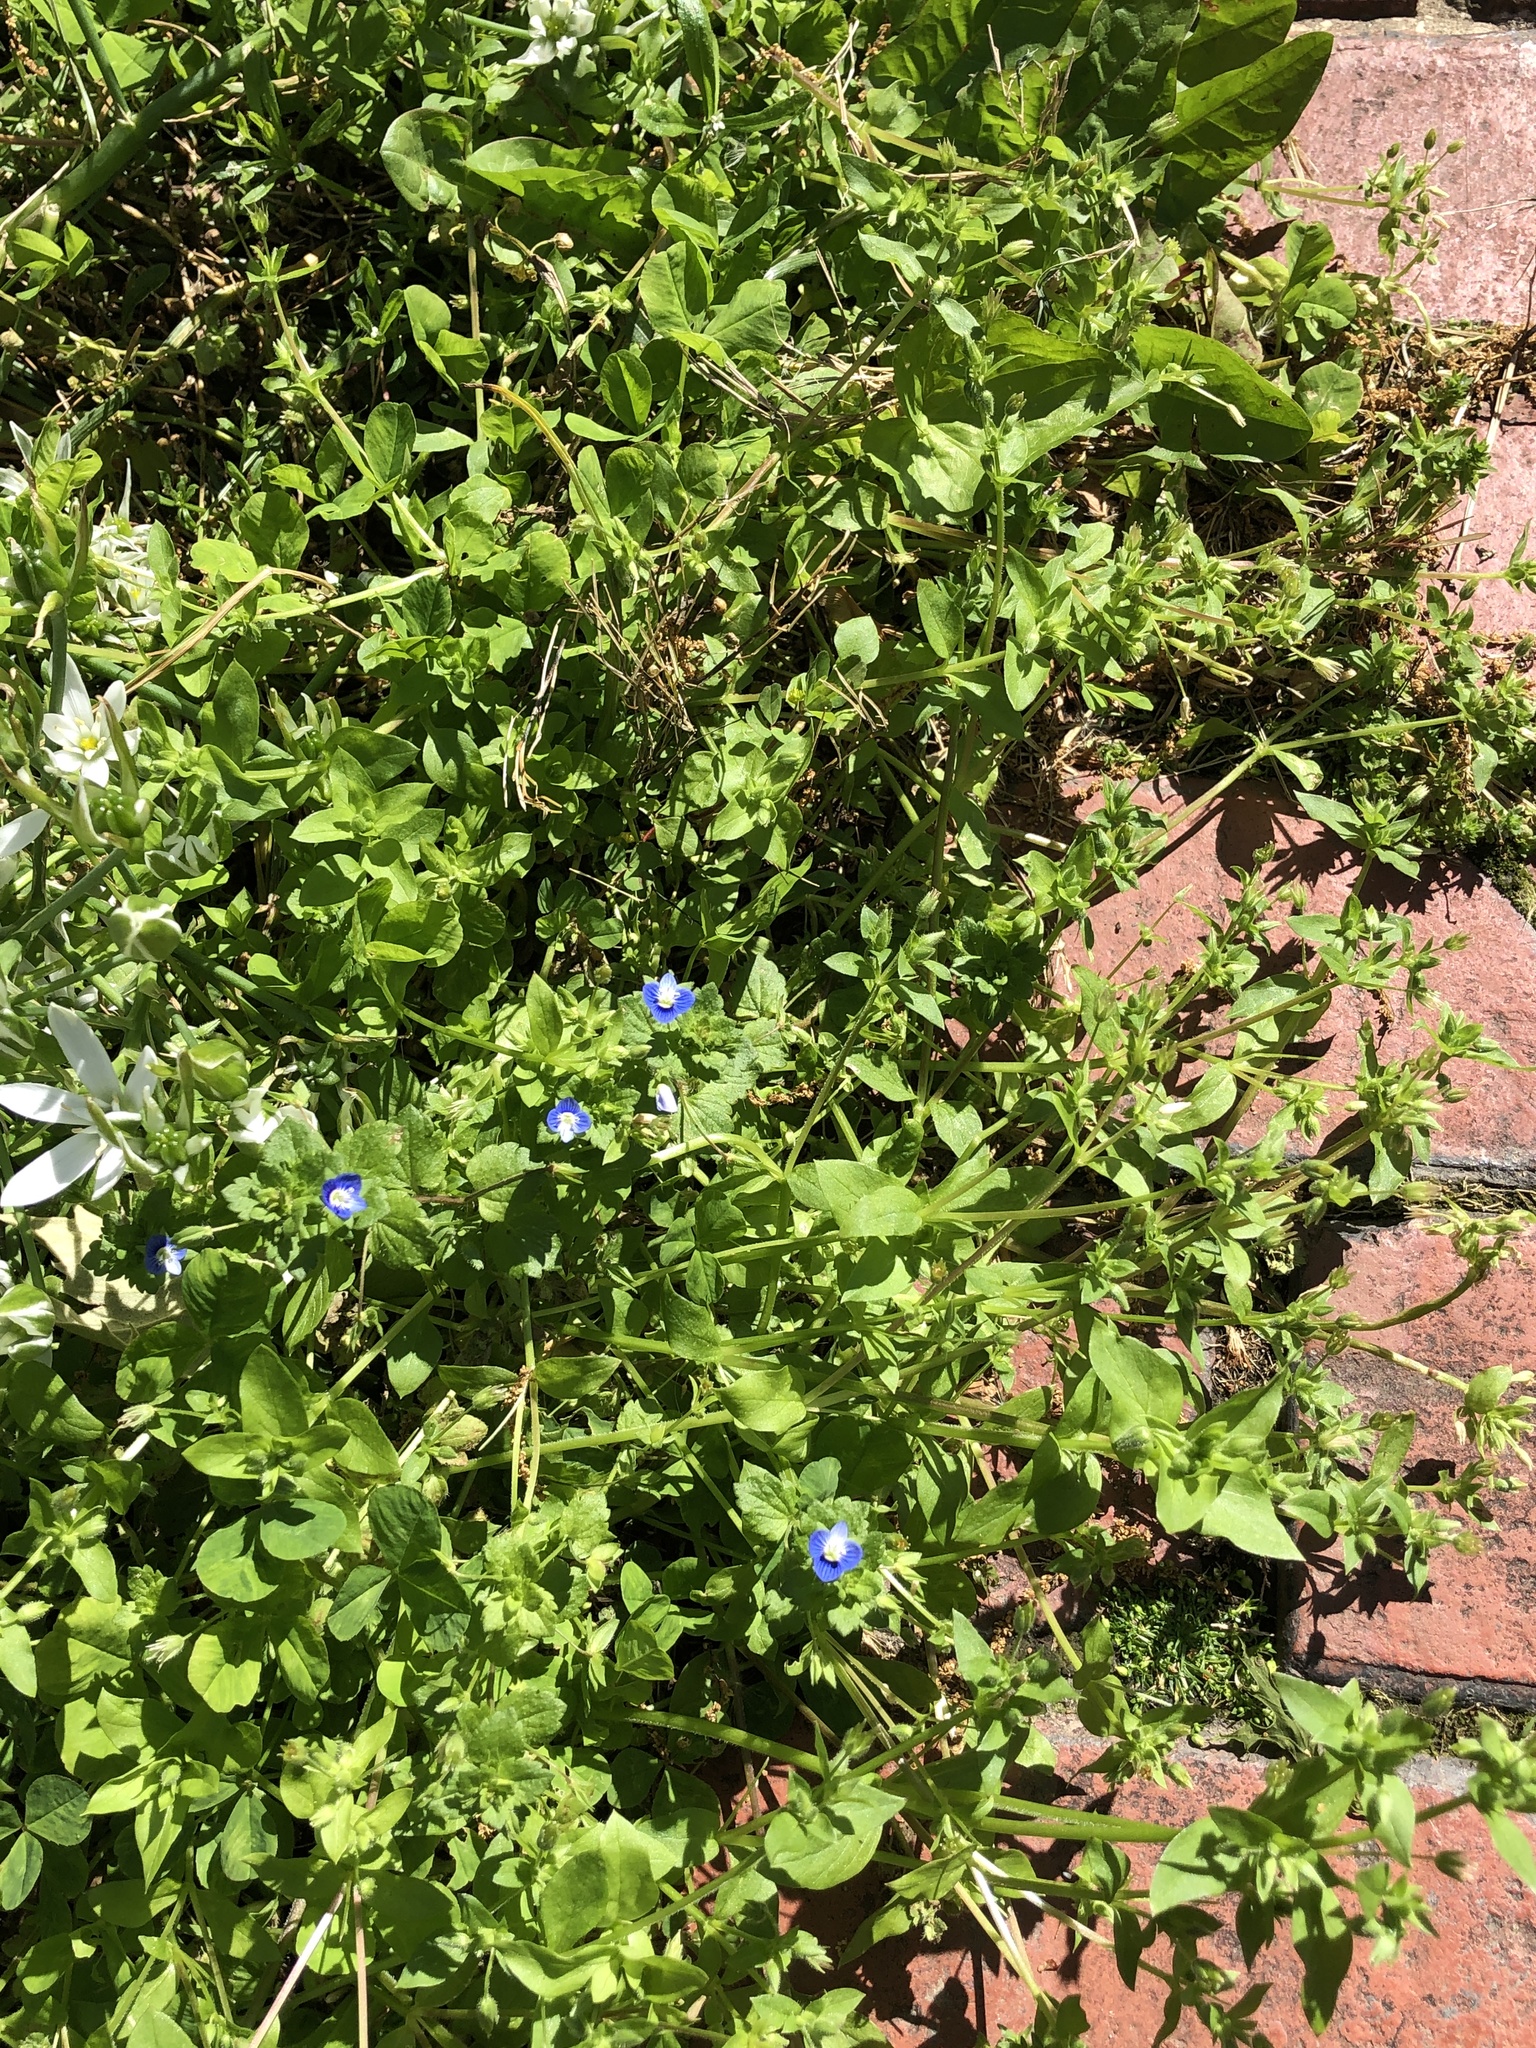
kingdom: Plantae
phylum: Tracheophyta
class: Magnoliopsida
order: Lamiales
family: Plantaginaceae
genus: Veronica
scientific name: Veronica persica
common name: Common field-speedwell
